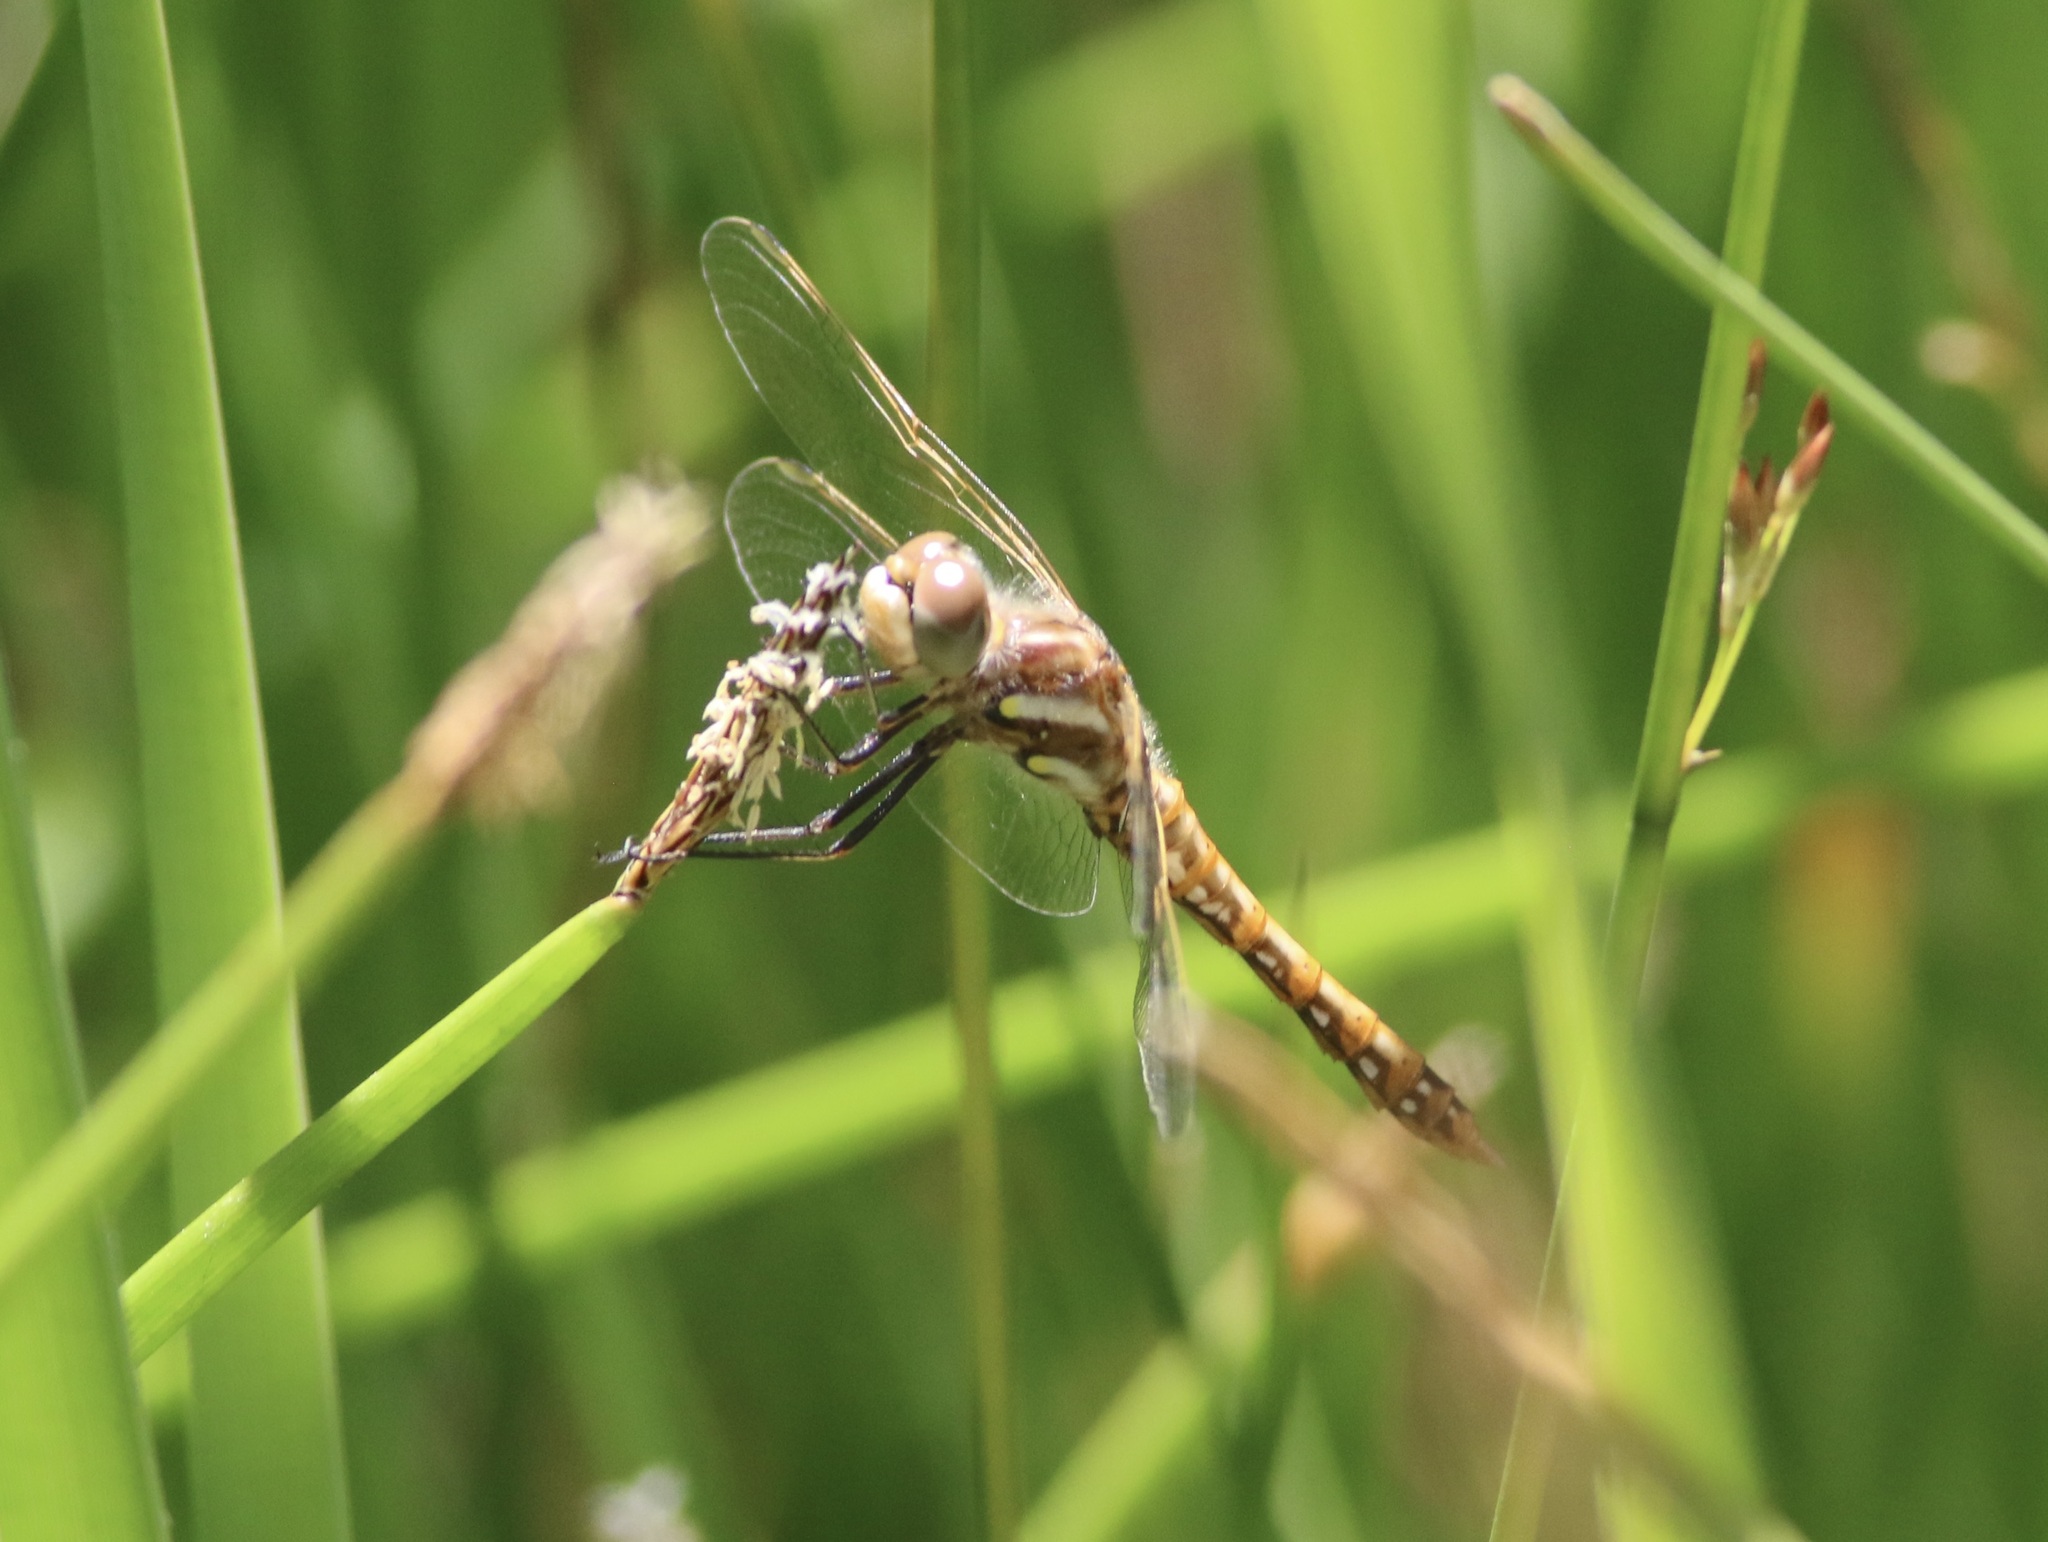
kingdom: Animalia
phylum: Arthropoda
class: Insecta
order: Odonata
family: Libellulidae
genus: Sympetrum
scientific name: Sympetrum corruptum
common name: Variegated meadowhawk
